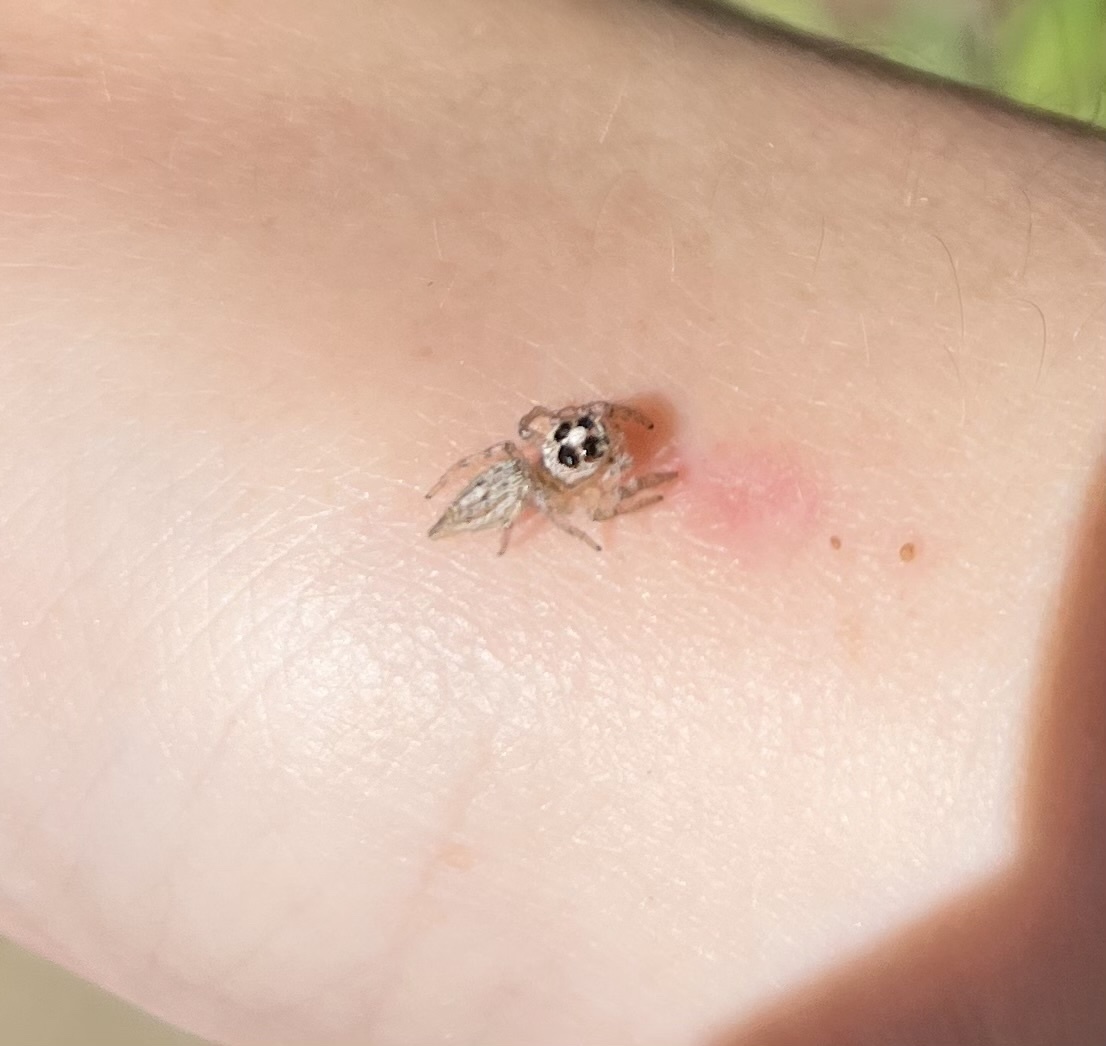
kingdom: Animalia
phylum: Arthropoda
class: Arachnida
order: Araneae
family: Salticidae
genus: Colonus
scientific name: Colonus hesperus
